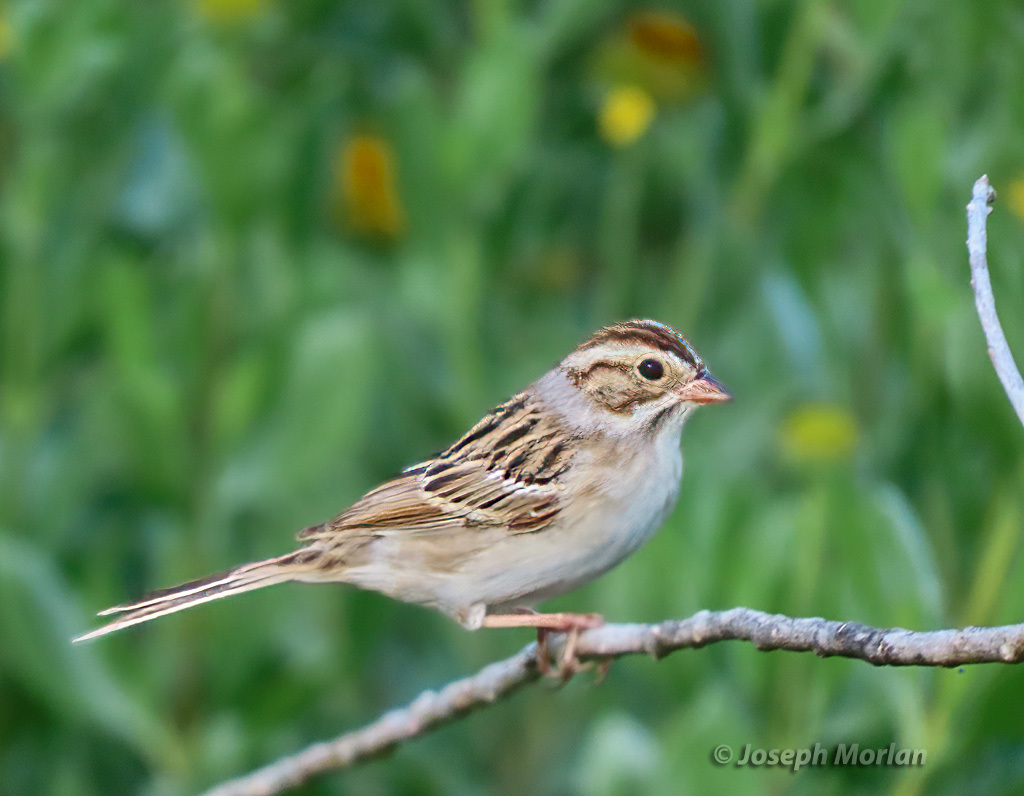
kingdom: Animalia
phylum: Chordata
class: Aves
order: Passeriformes
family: Passerellidae
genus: Spizella
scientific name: Spizella pallida
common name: Clay-colored sparrow
